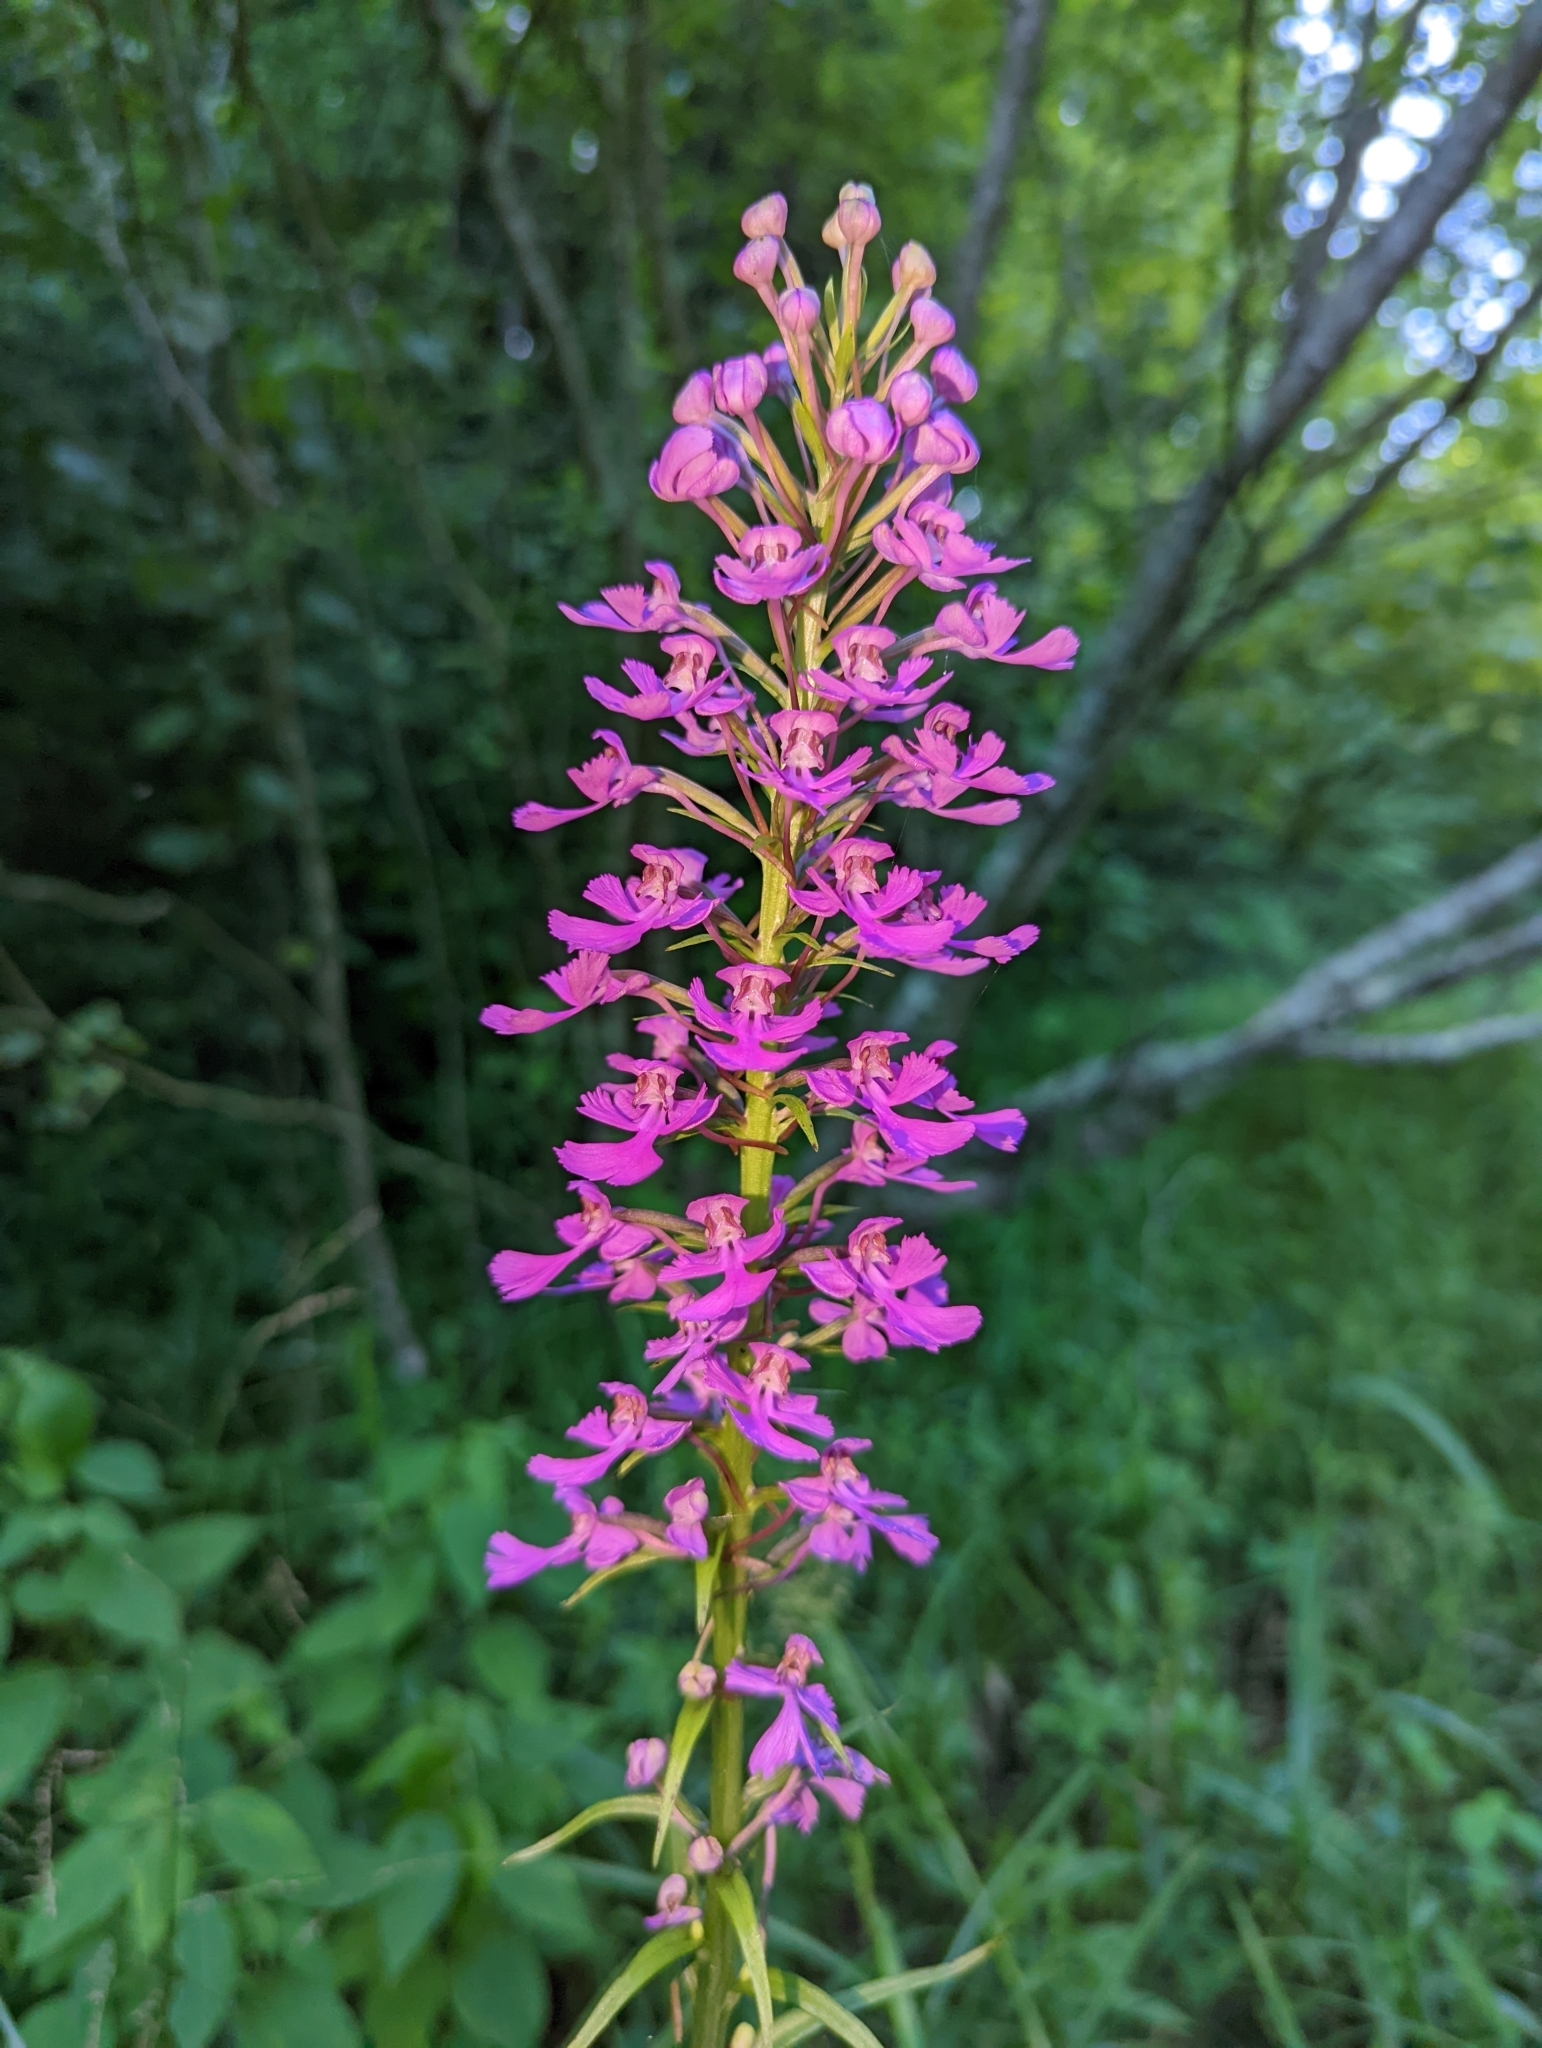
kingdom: Plantae
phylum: Tracheophyta
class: Liliopsida
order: Asparagales
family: Orchidaceae
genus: Platanthera
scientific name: Platanthera peramoena
